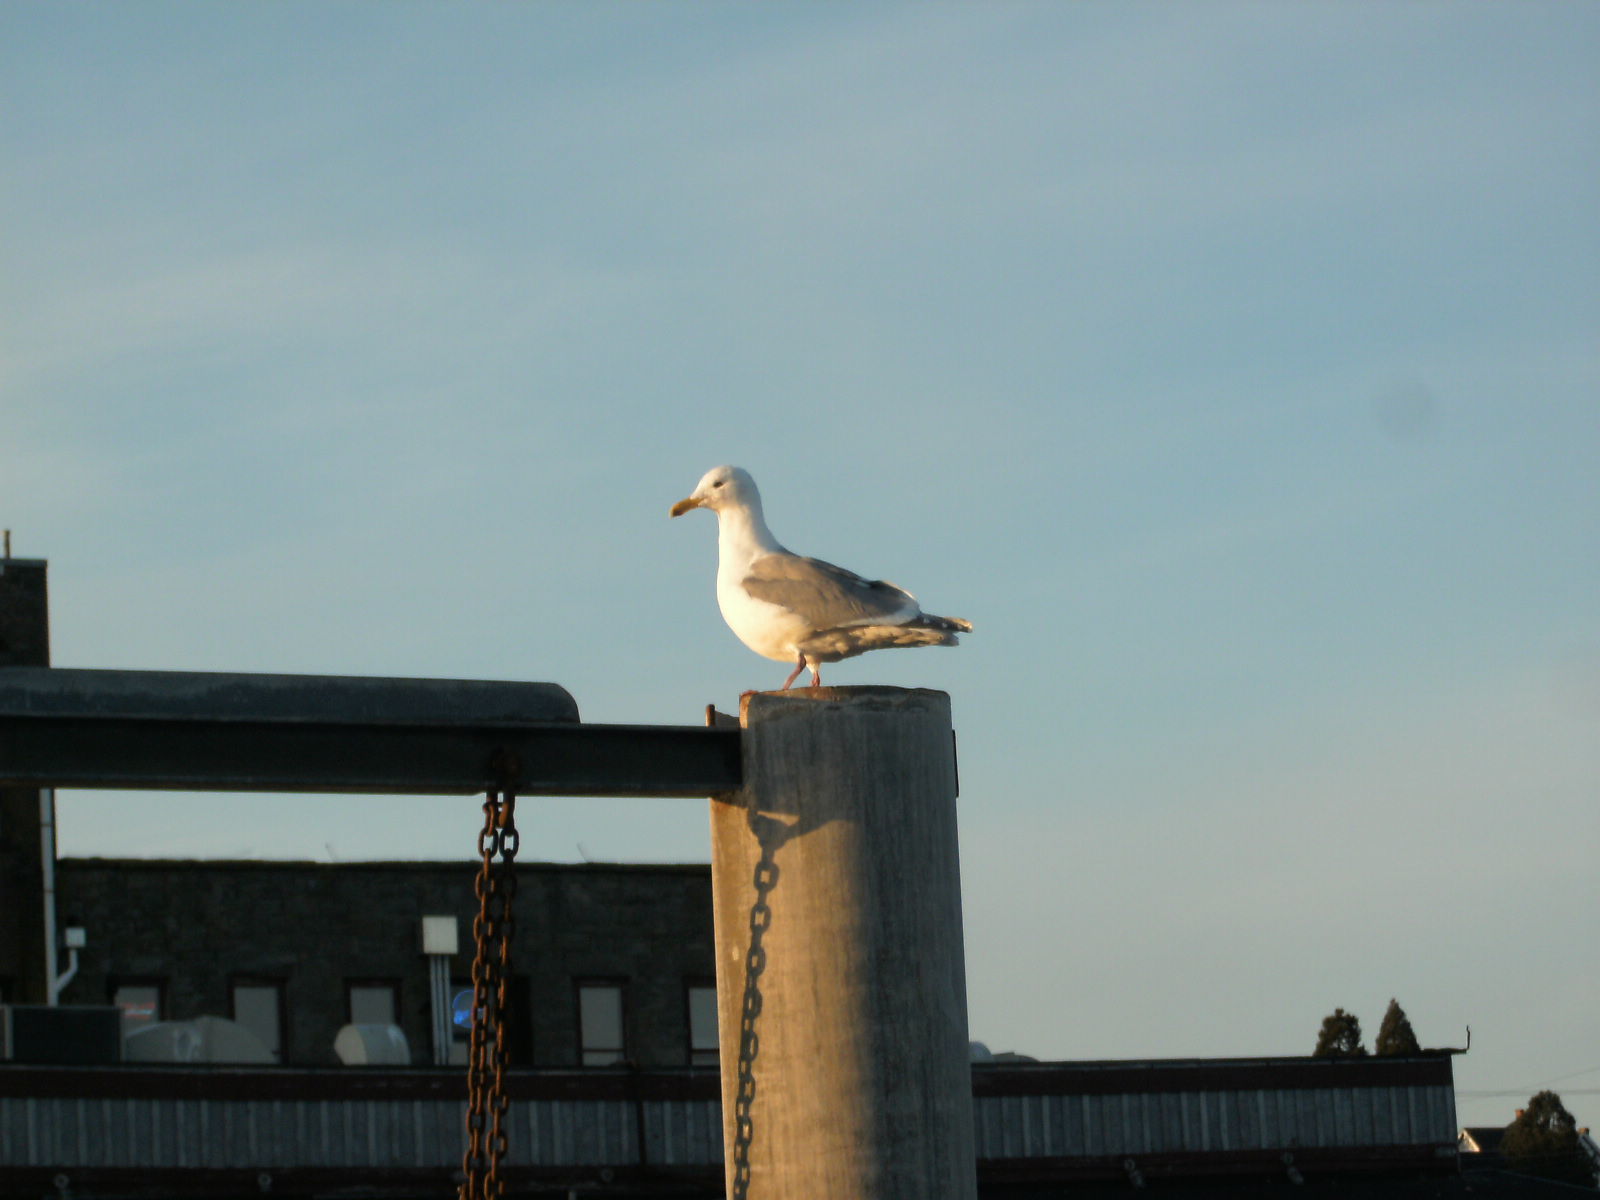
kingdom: Animalia
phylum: Chordata
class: Aves
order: Charadriiformes
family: Laridae
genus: Larus
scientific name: Larus
